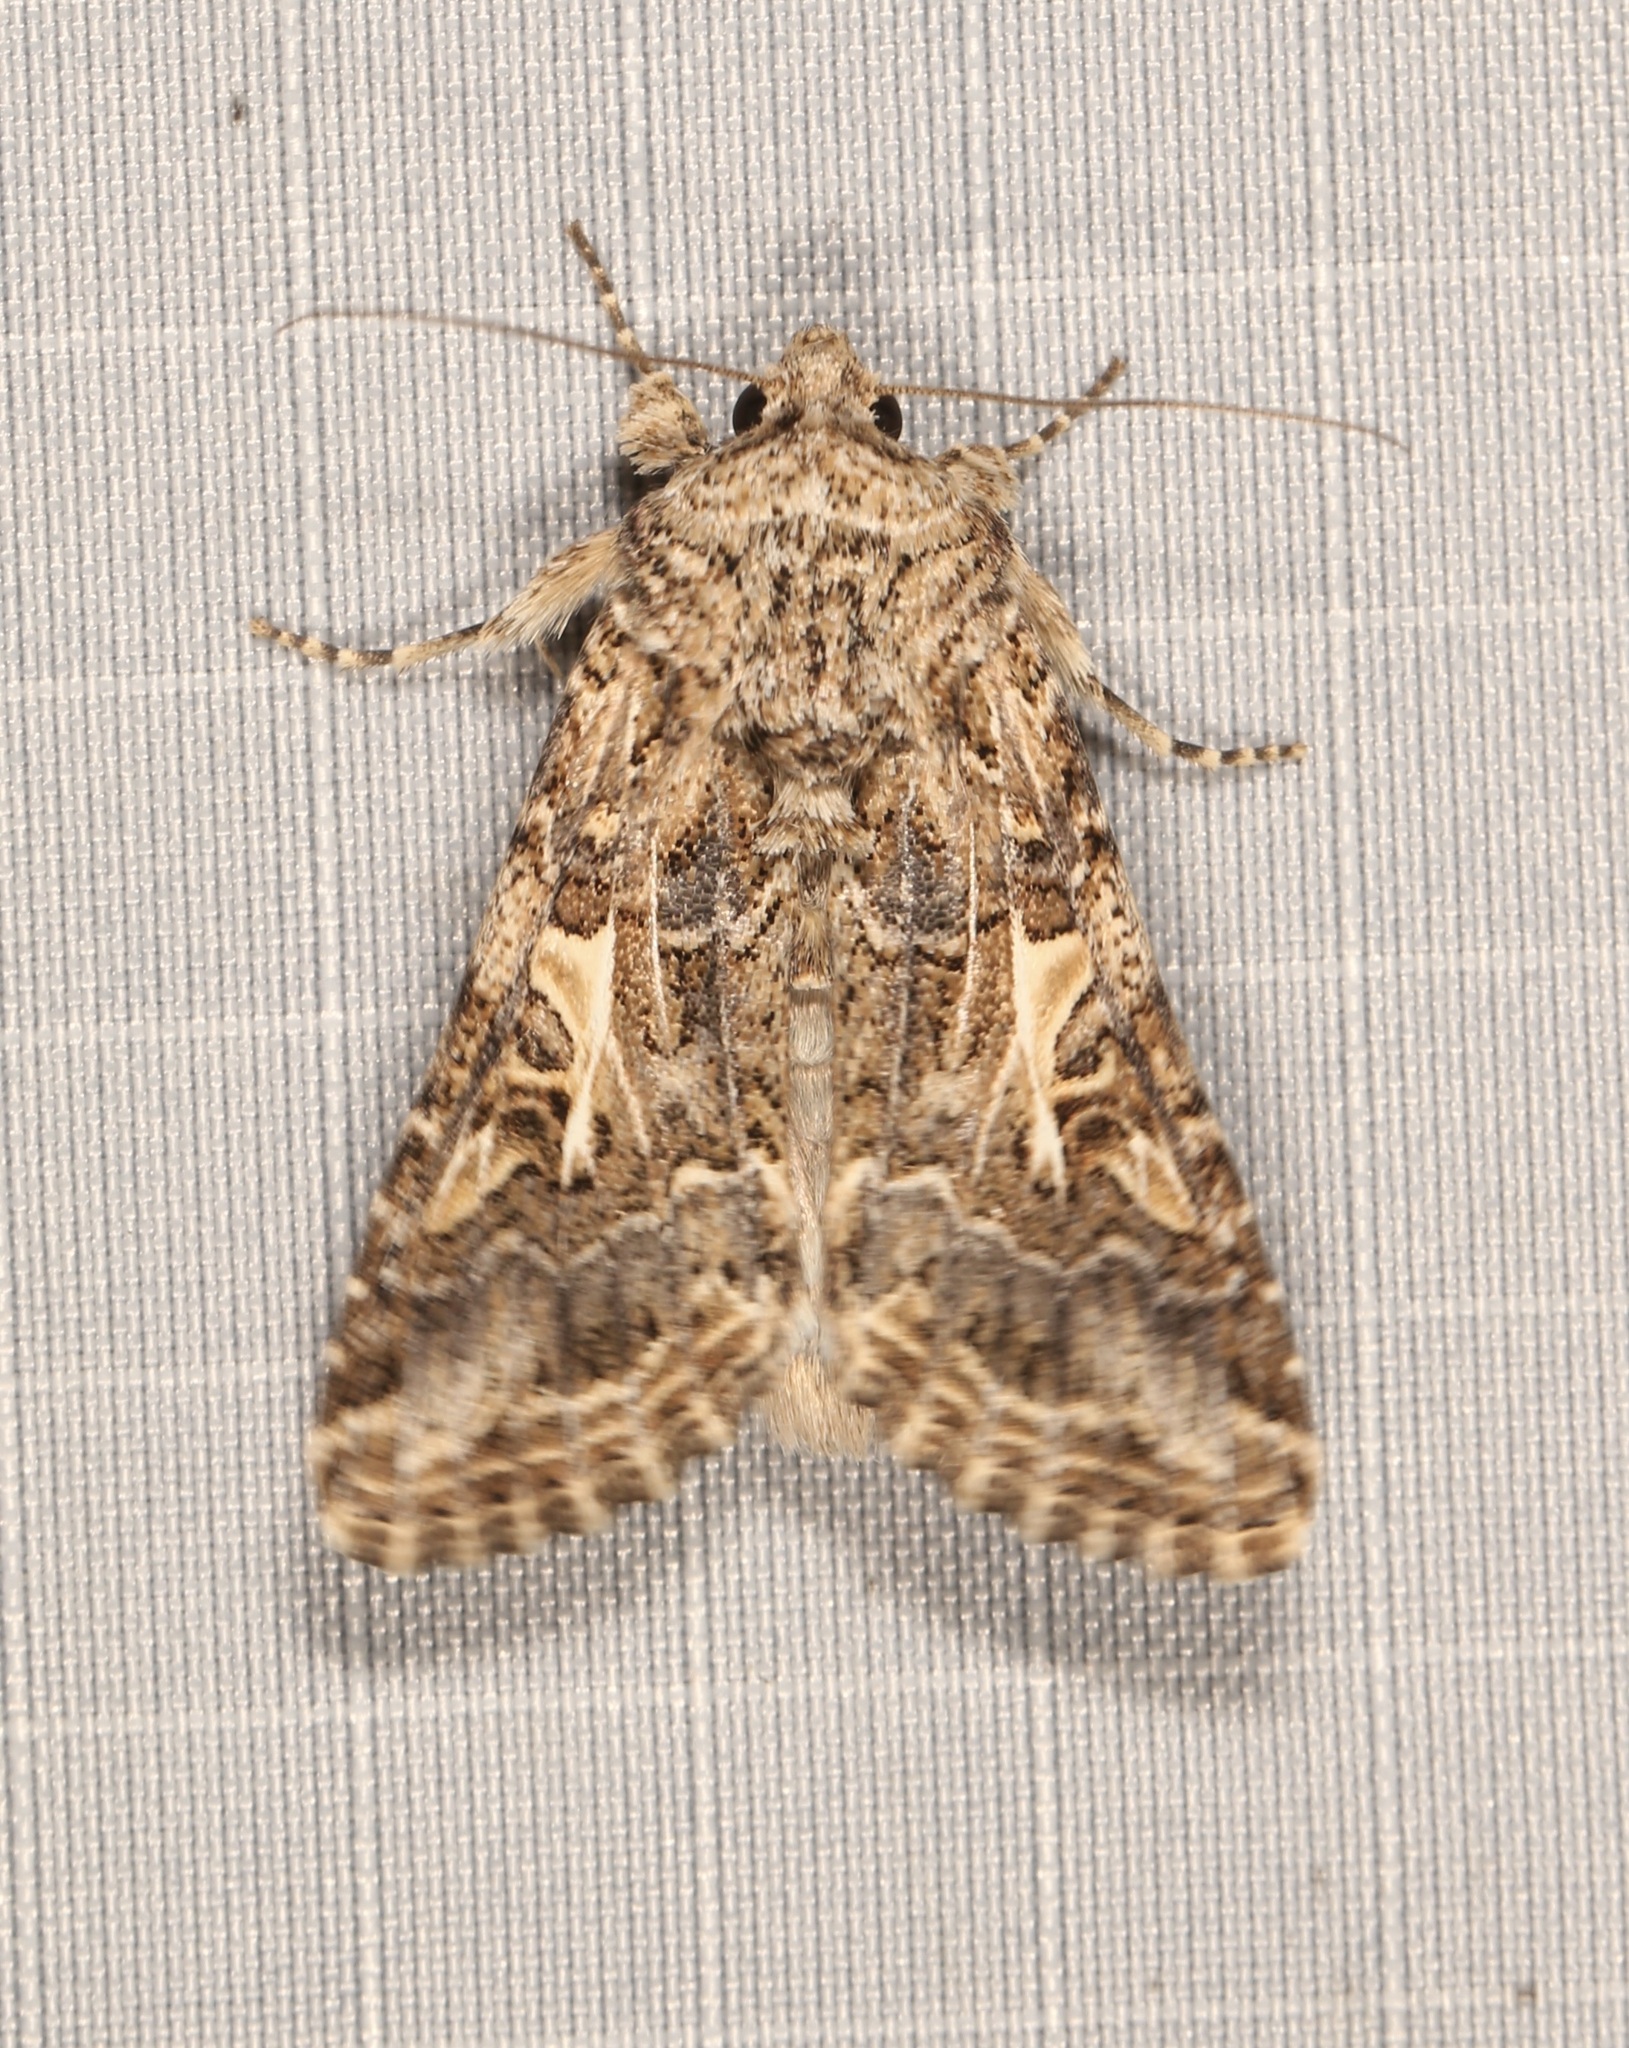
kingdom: Animalia
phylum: Arthropoda
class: Insecta
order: Lepidoptera
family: Noctuidae
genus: Spodoptera
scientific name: Spodoptera praefica
